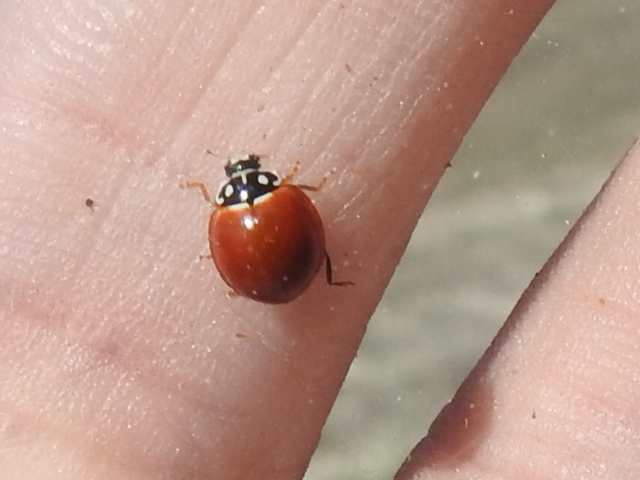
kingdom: Animalia
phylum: Arthropoda
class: Insecta
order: Coleoptera
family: Coccinellidae
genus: Cycloneda
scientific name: Cycloneda sanguinea
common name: Ladybird beetle
